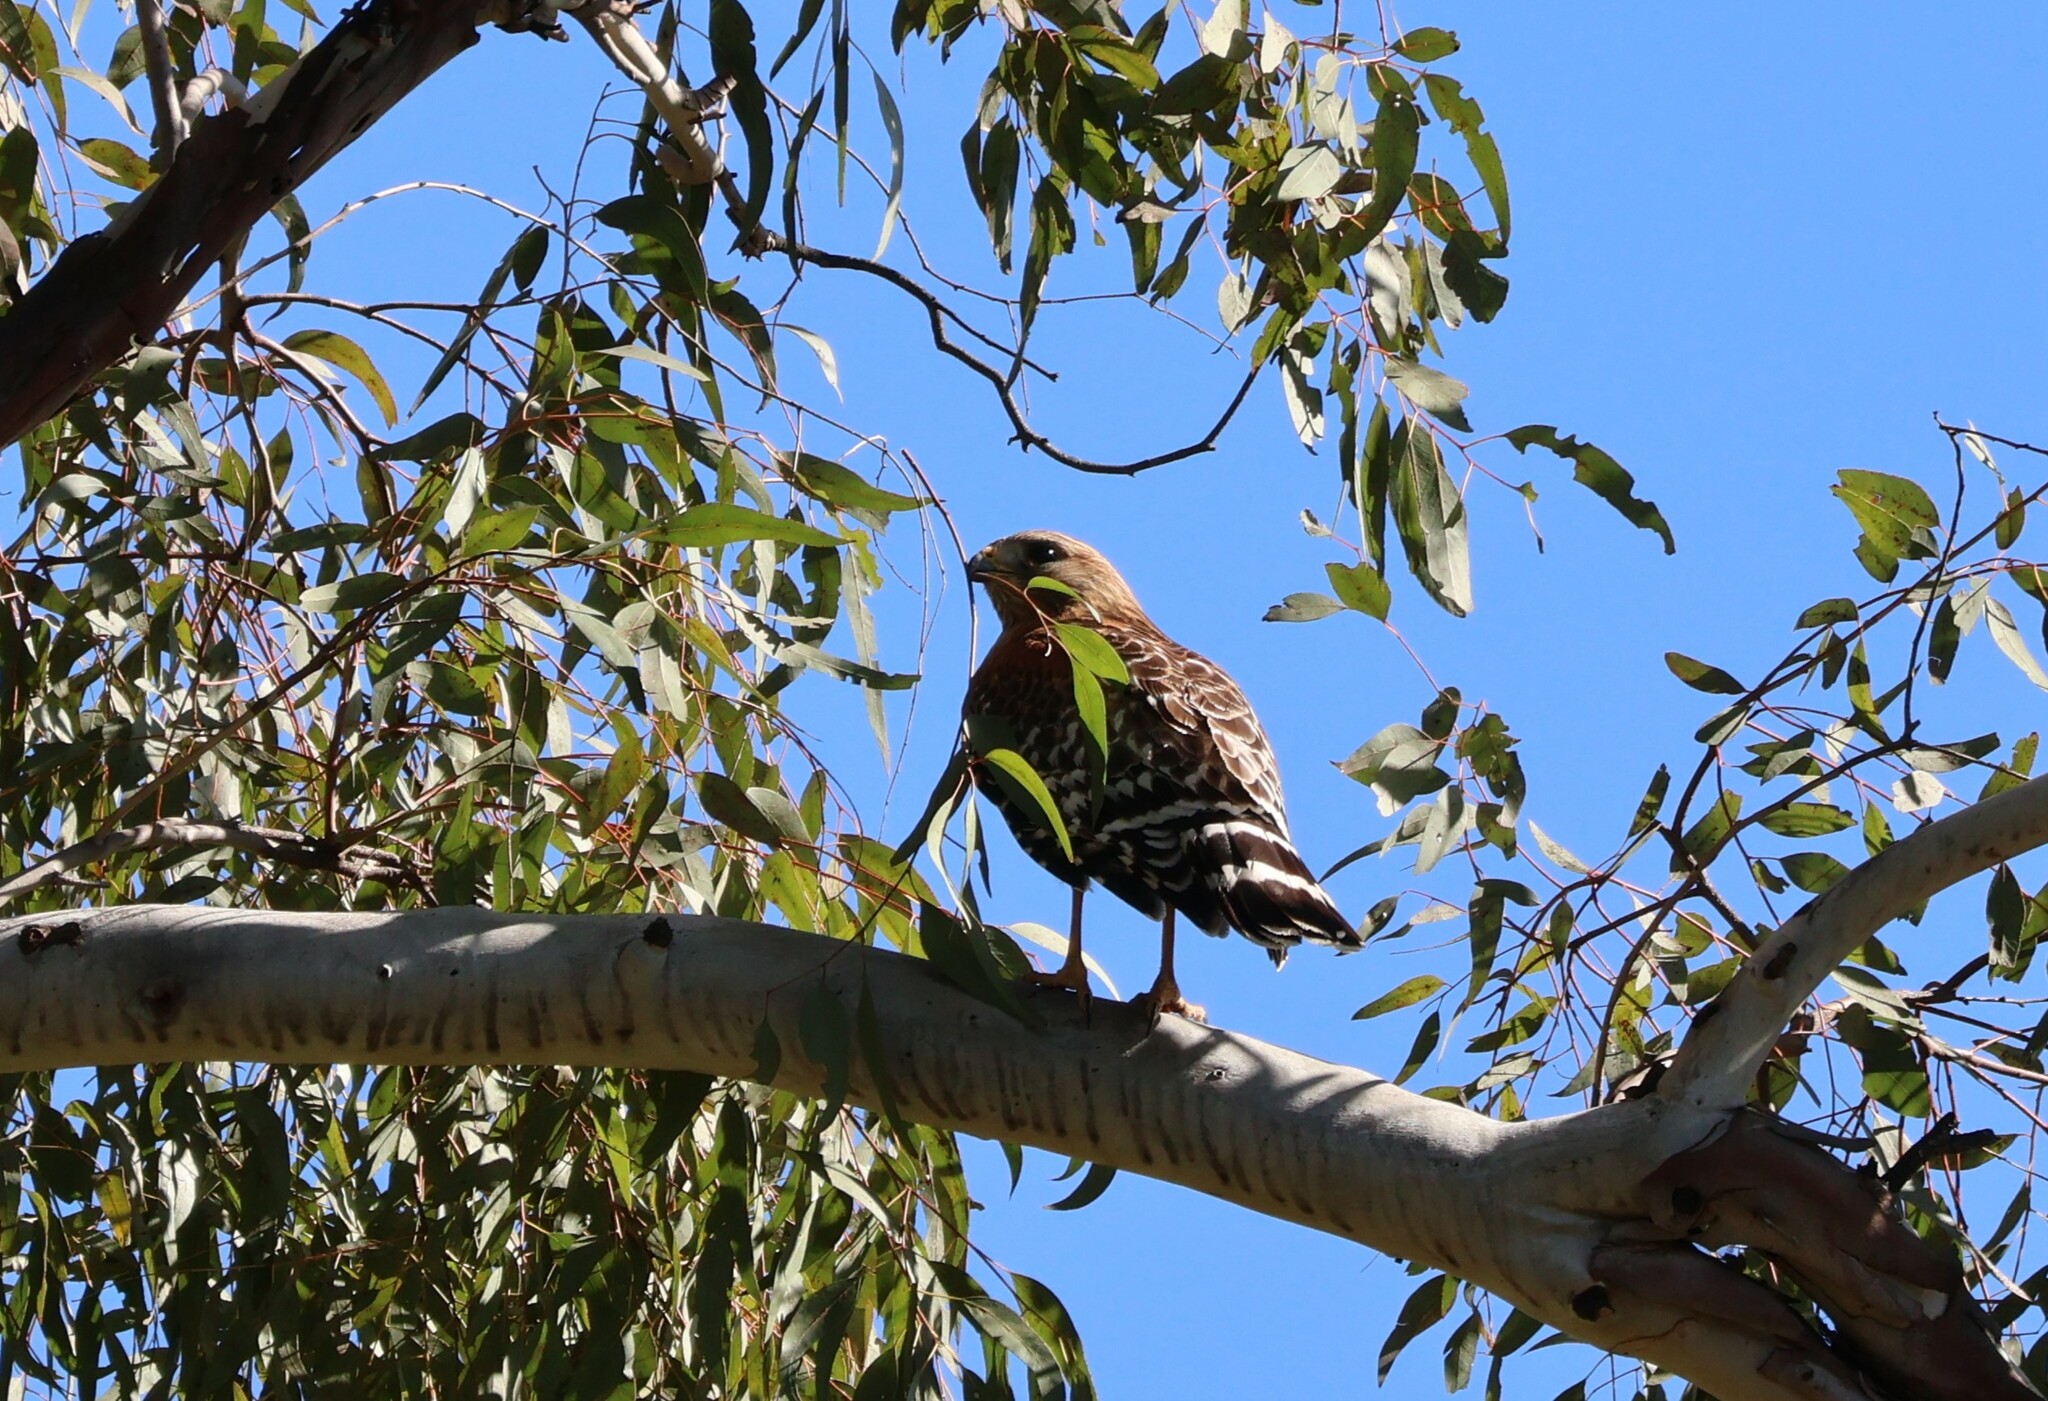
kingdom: Animalia
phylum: Chordata
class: Aves
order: Accipitriformes
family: Accipitridae
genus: Buteo
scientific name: Buteo lineatus
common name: Red-shouldered hawk
